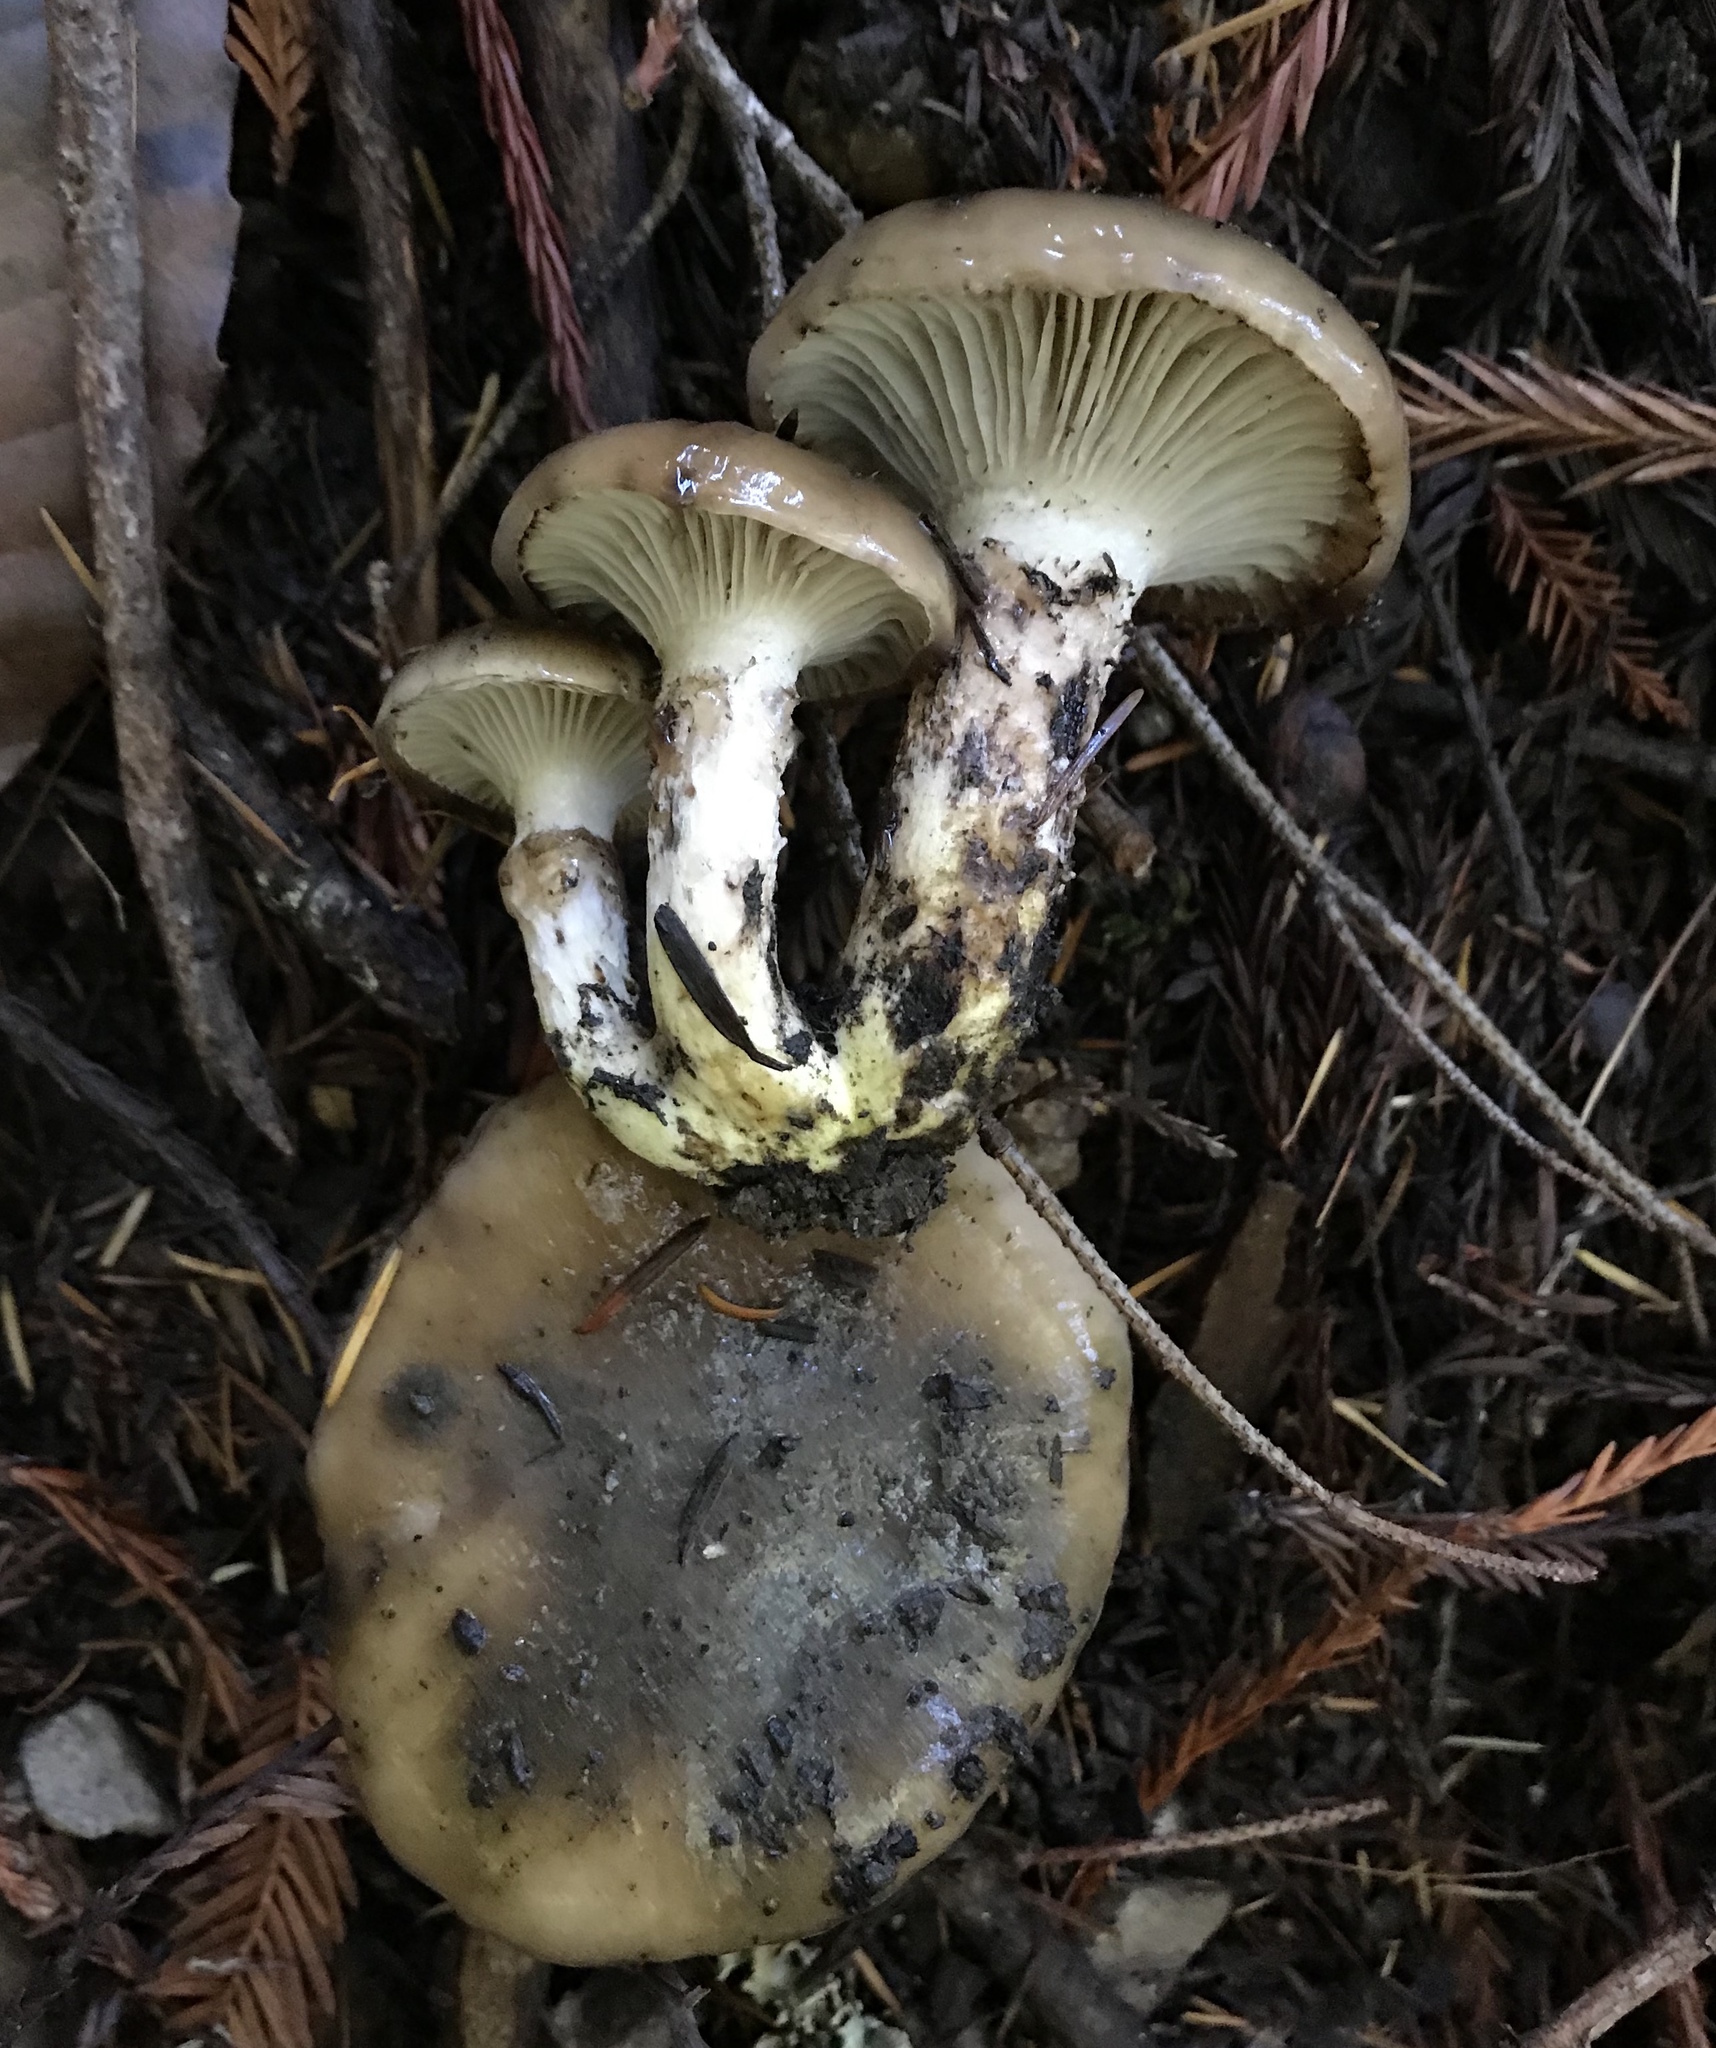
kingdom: Fungi
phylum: Basidiomycota
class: Agaricomycetes
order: Boletales
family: Gomphidiaceae
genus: Gomphidius
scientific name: Gomphidius oregonensis
